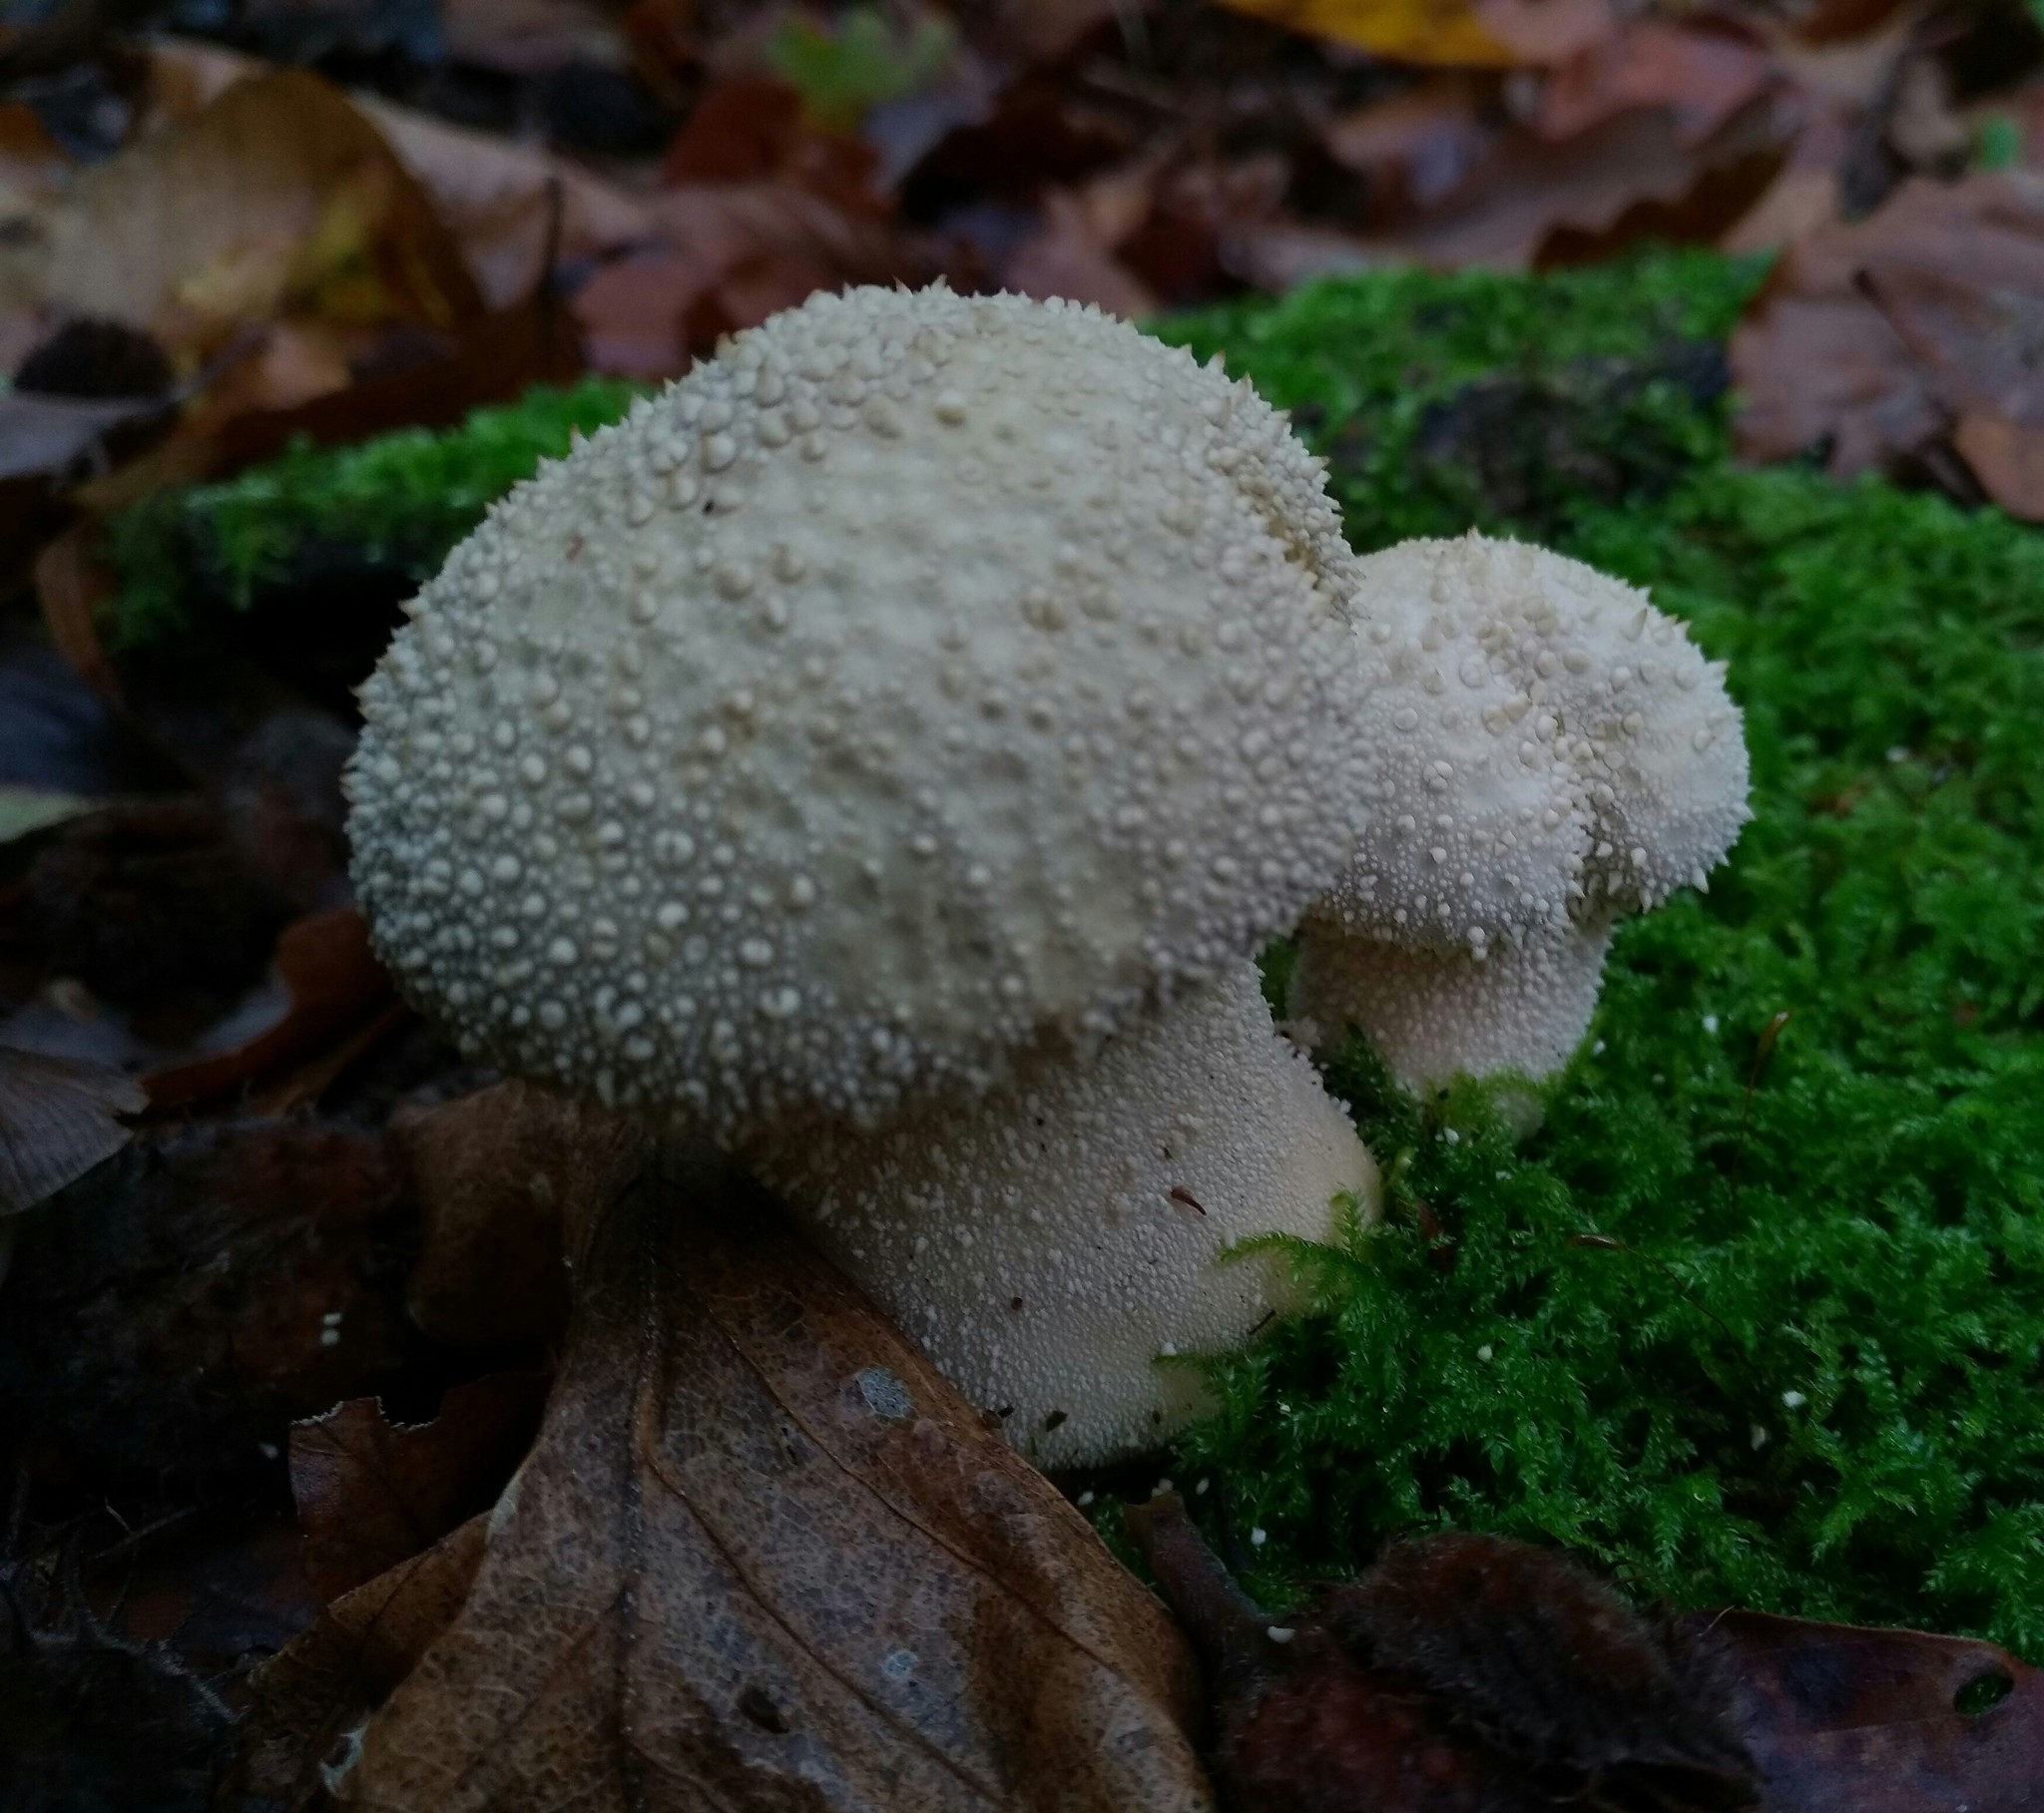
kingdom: Fungi
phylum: Basidiomycota
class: Agaricomycetes
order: Agaricales
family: Lycoperdaceae
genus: Lycoperdon
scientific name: Lycoperdon perlatum
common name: Common puffball
